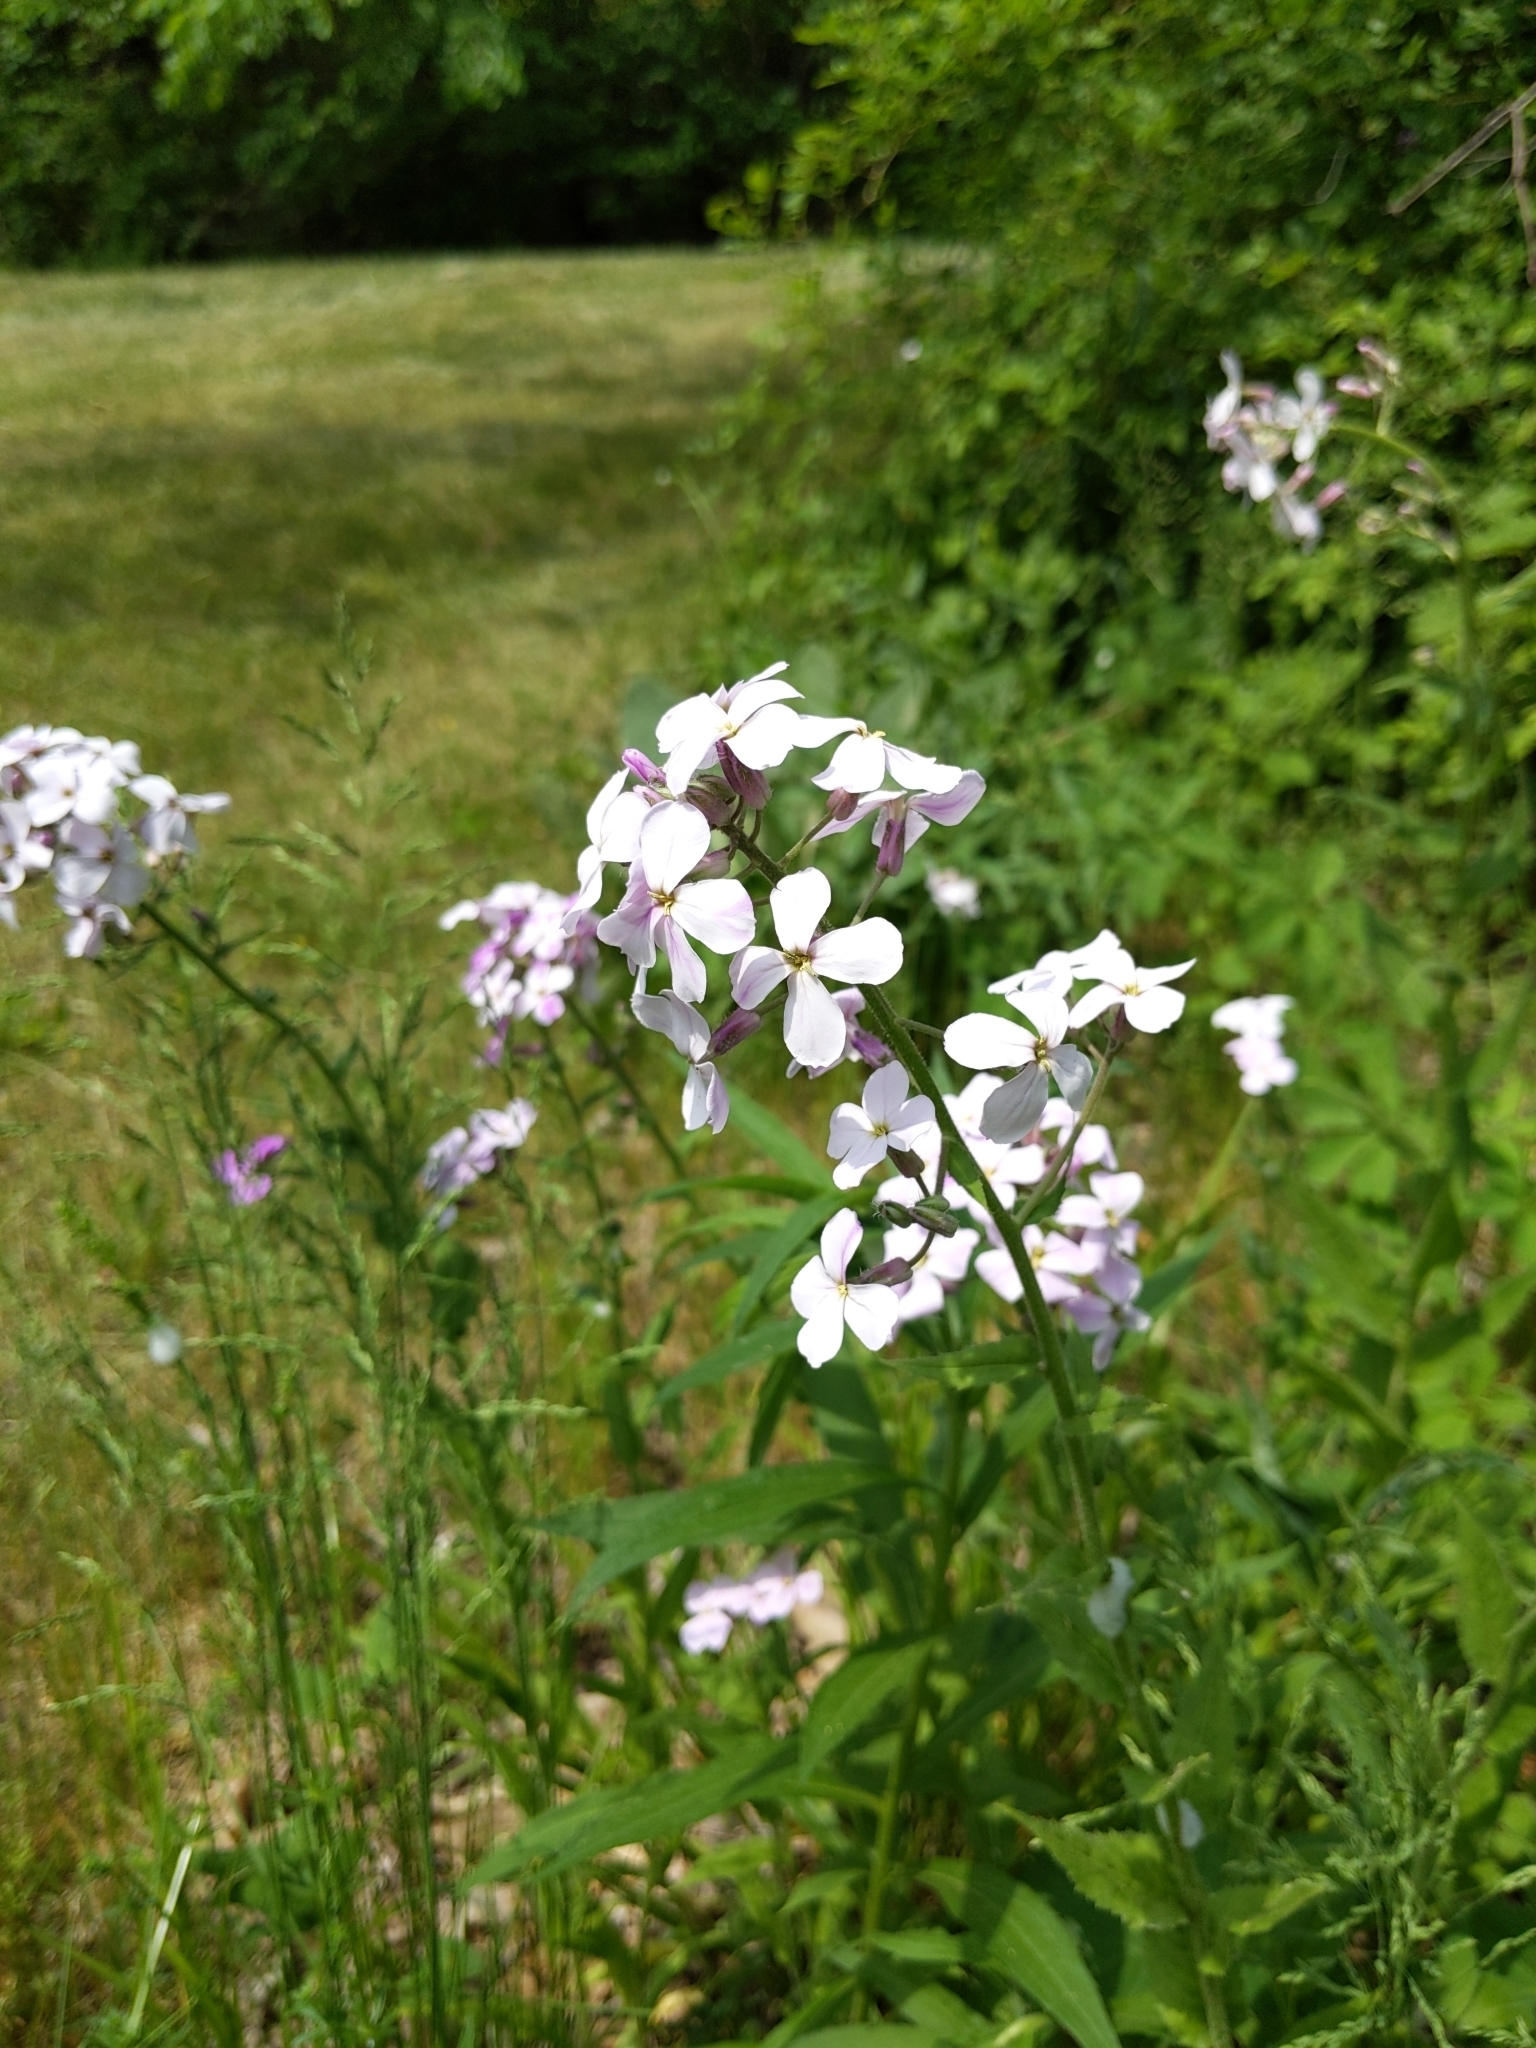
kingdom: Plantae
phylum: Tracheophyta
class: Magnoliopsida
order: Brassicales
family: Brassicaceae
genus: Hesperis
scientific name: Hesperis matronalis
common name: Dame's-violet
